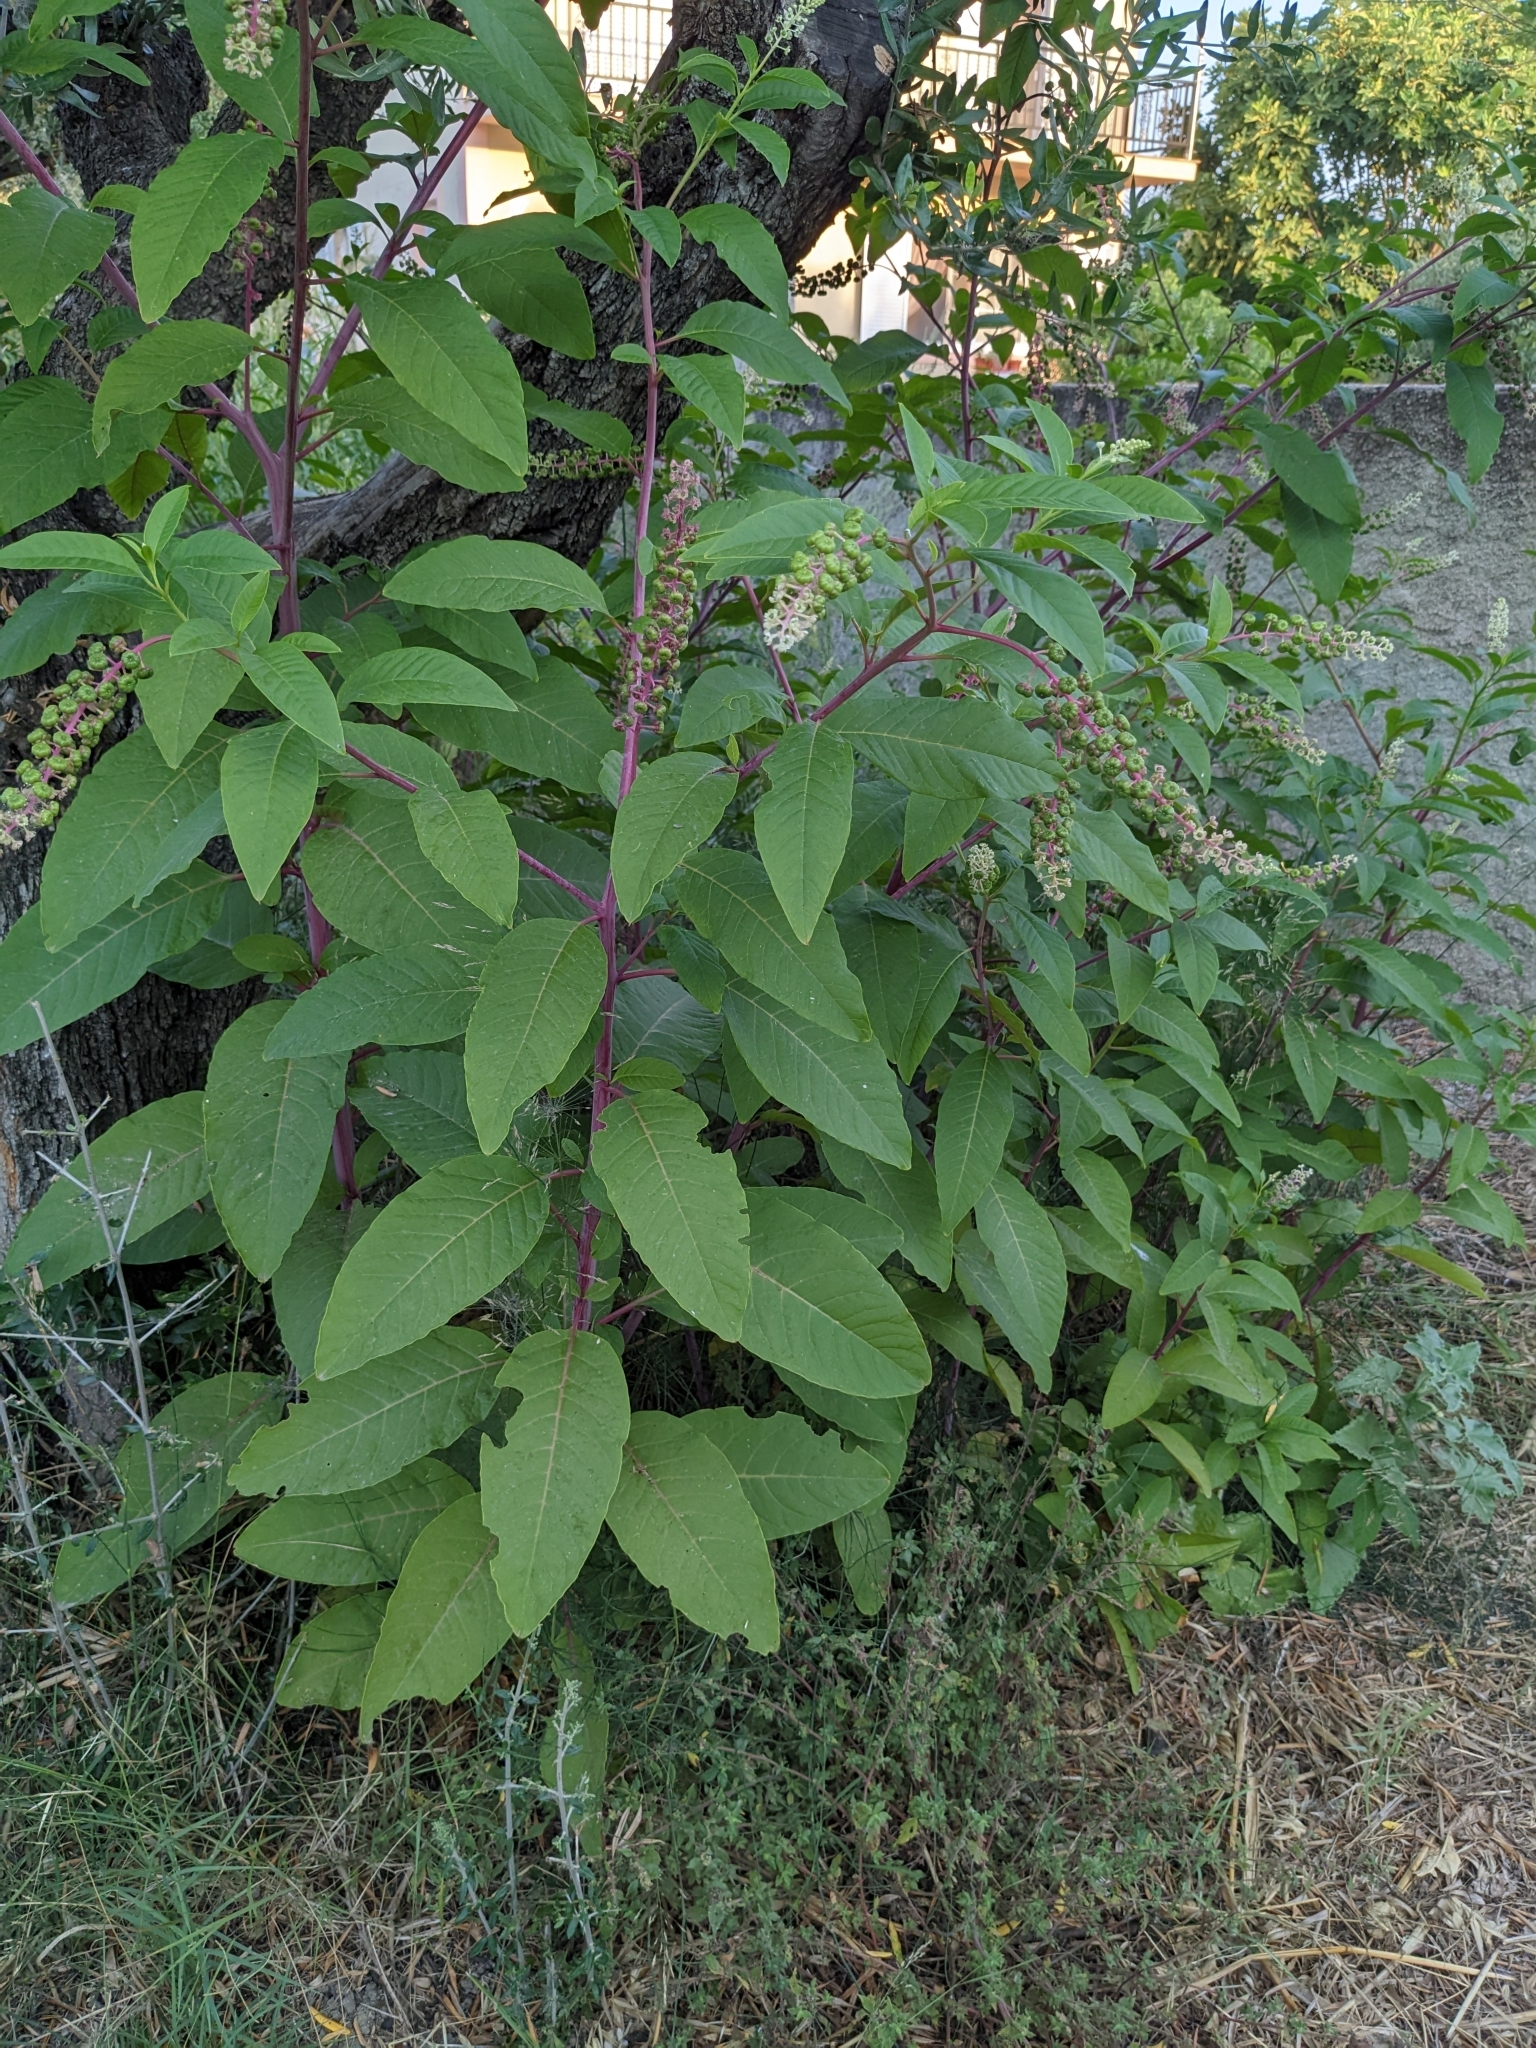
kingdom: Plantae
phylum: Tracheophyta
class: Magnoliopsida
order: Caryophyllales
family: Phytolaccaceae
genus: Phytolacca
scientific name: Phytolacca americana
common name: American pokeweed
